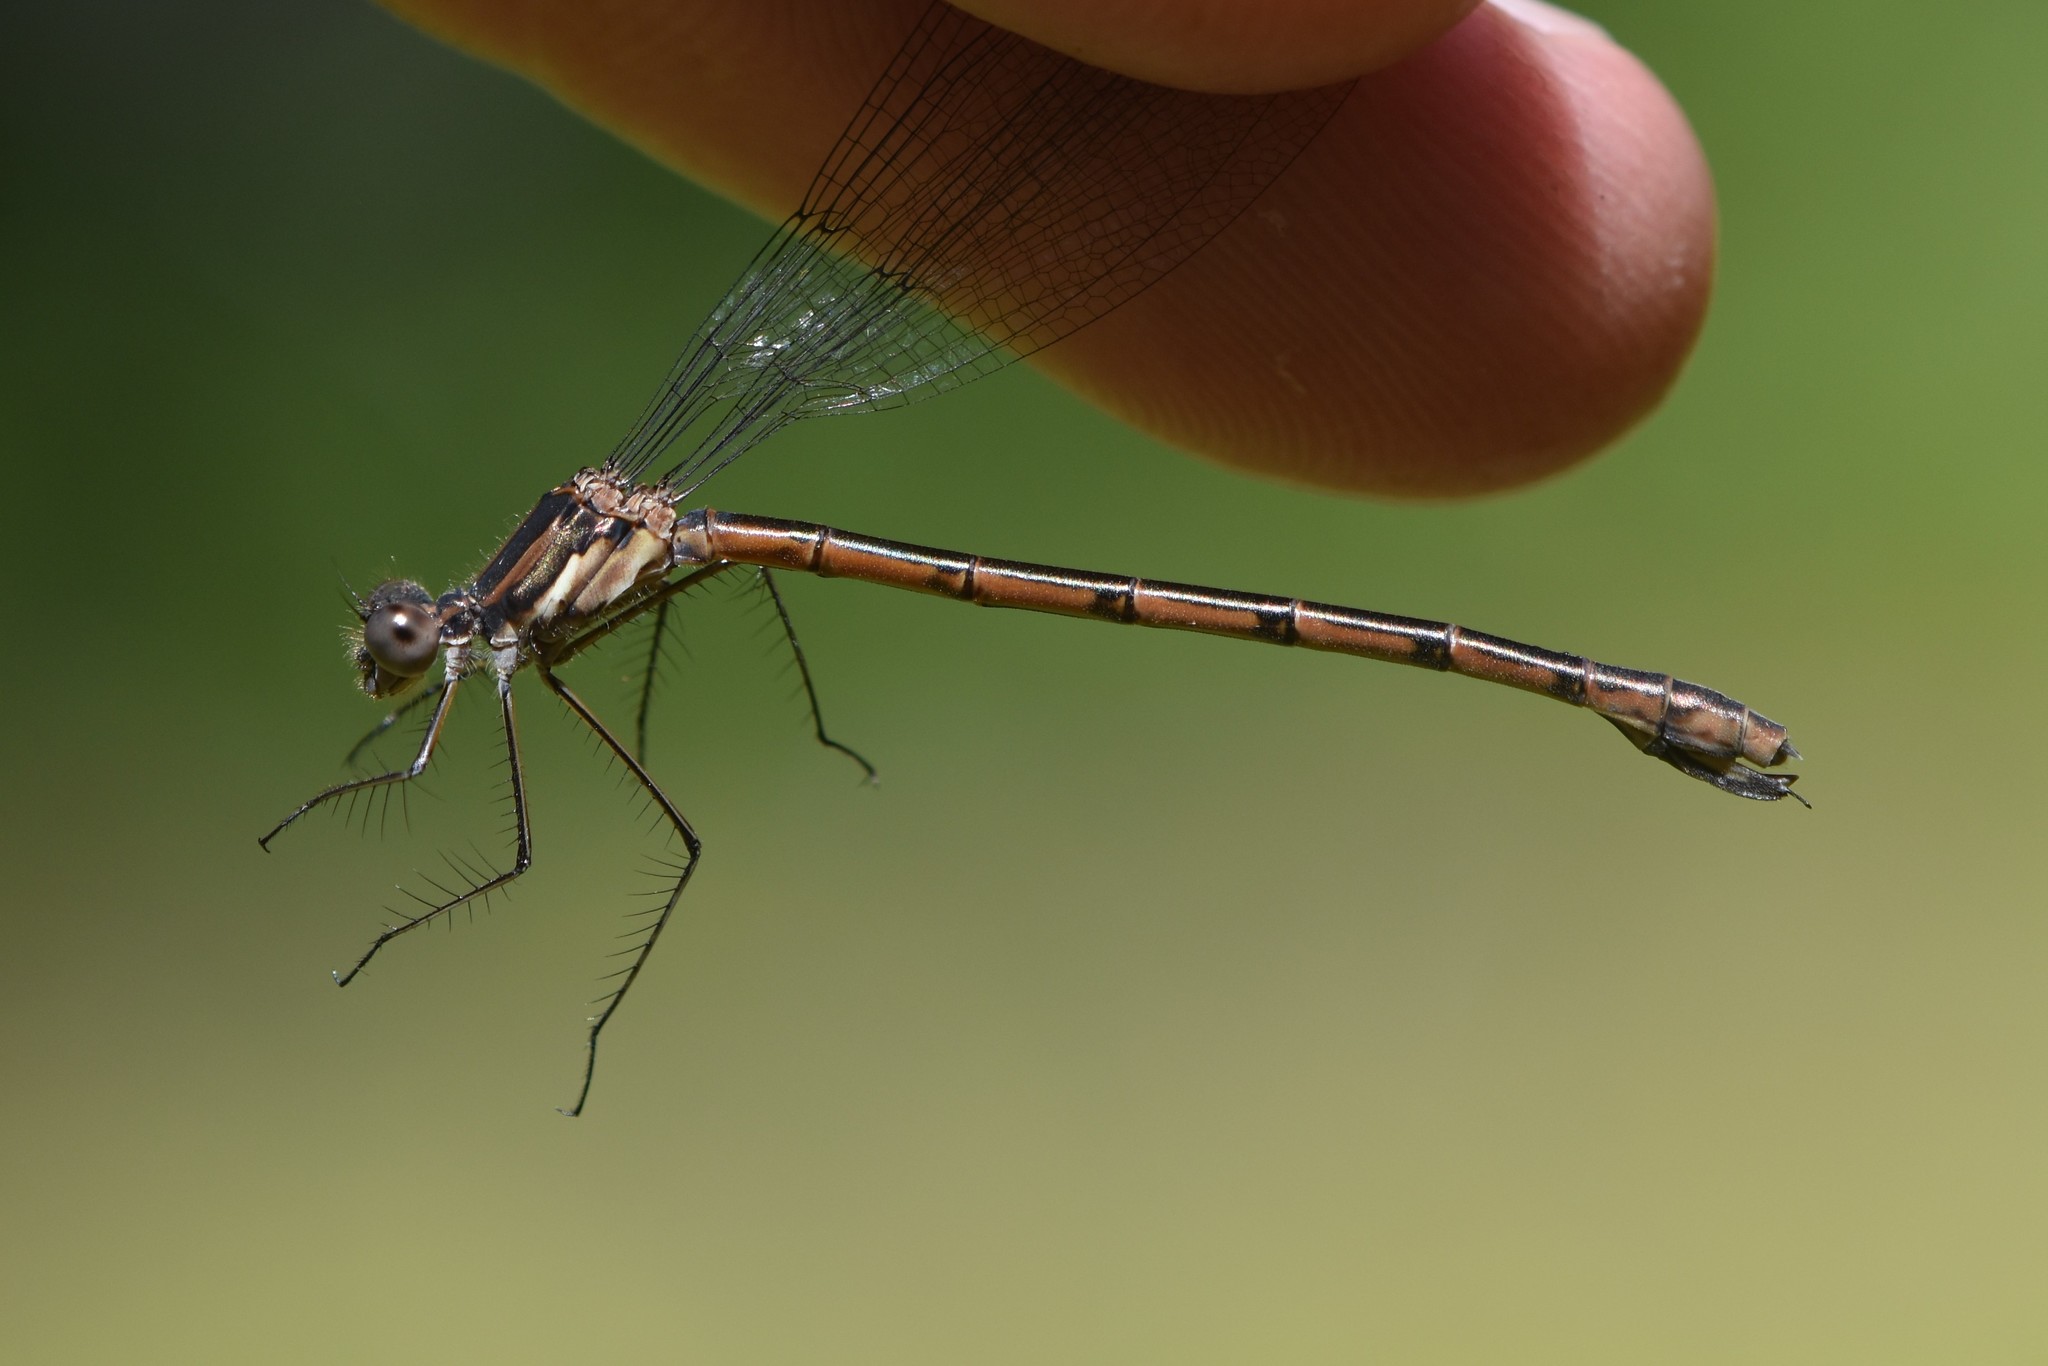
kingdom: Animalia
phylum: Arthropoda
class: Insecta
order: Odonata
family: Lestidae
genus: Lestes
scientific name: Lestes forcipatus
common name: Sweetflag spreadwing
